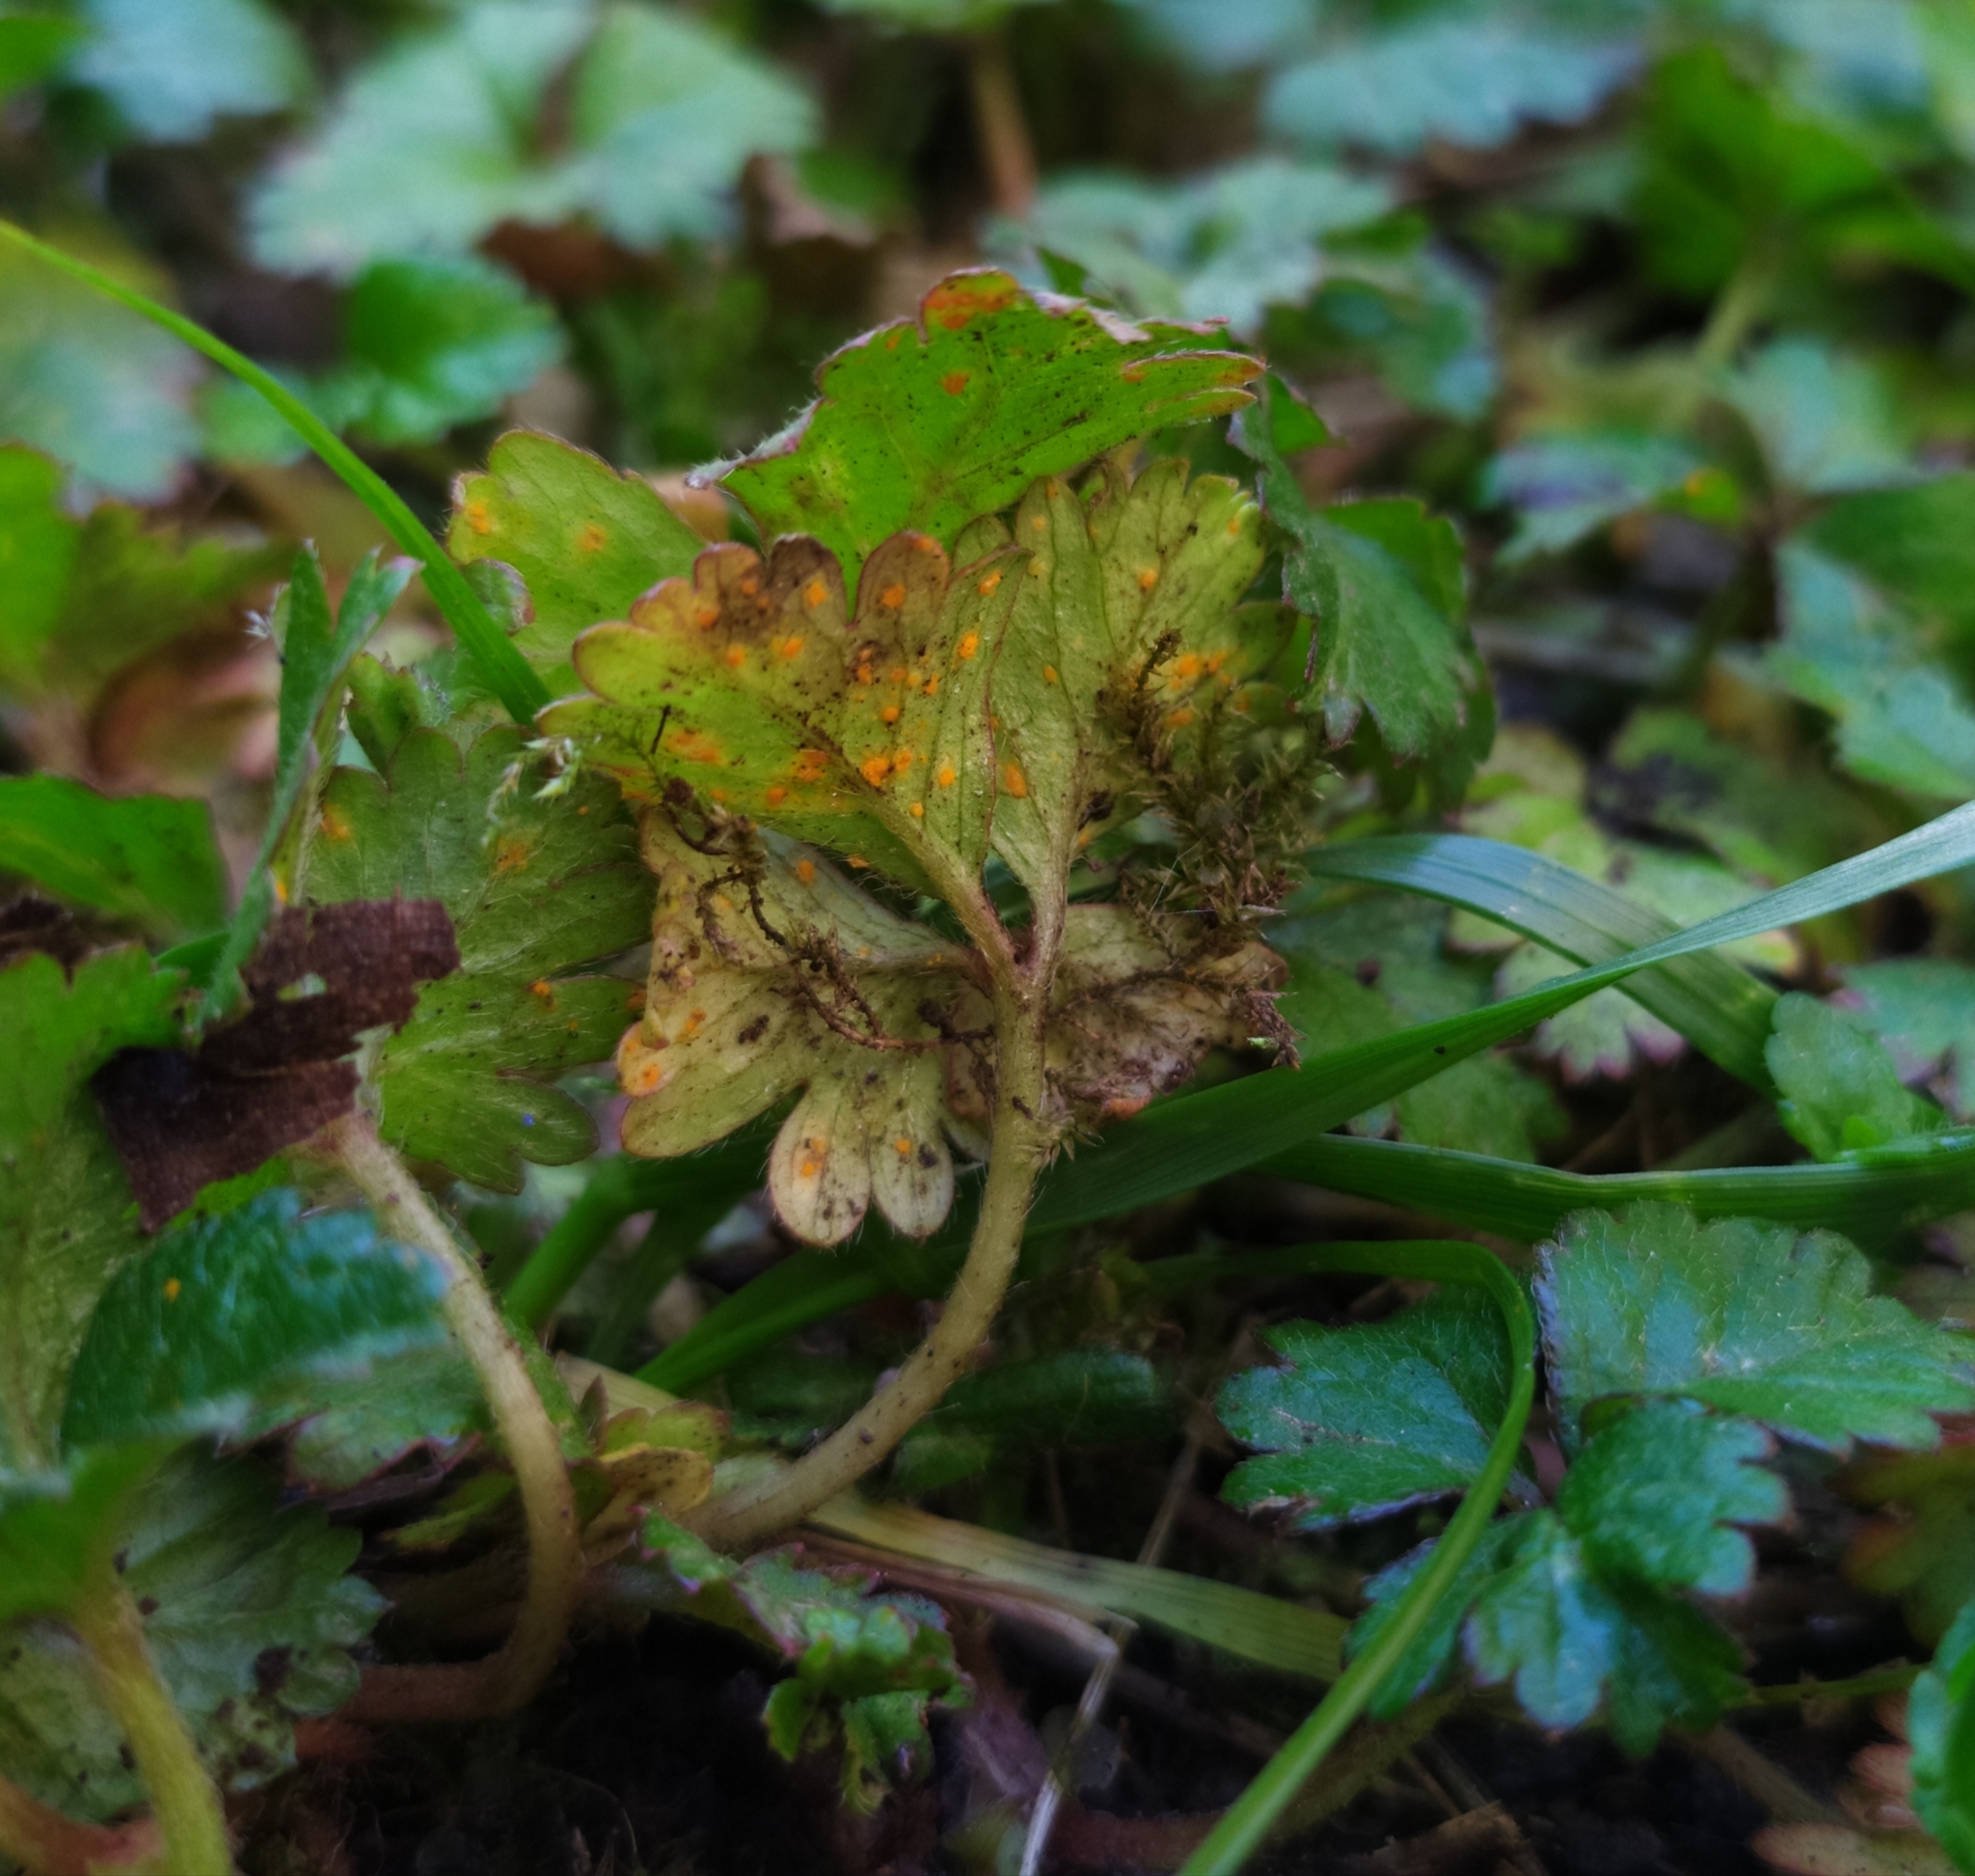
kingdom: Fungi
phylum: Basidiomycota
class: Pucciniomycetes
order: Pucciniales
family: Phragmidiaceae
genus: Phragmidium
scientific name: Phragmidium mexicanum
